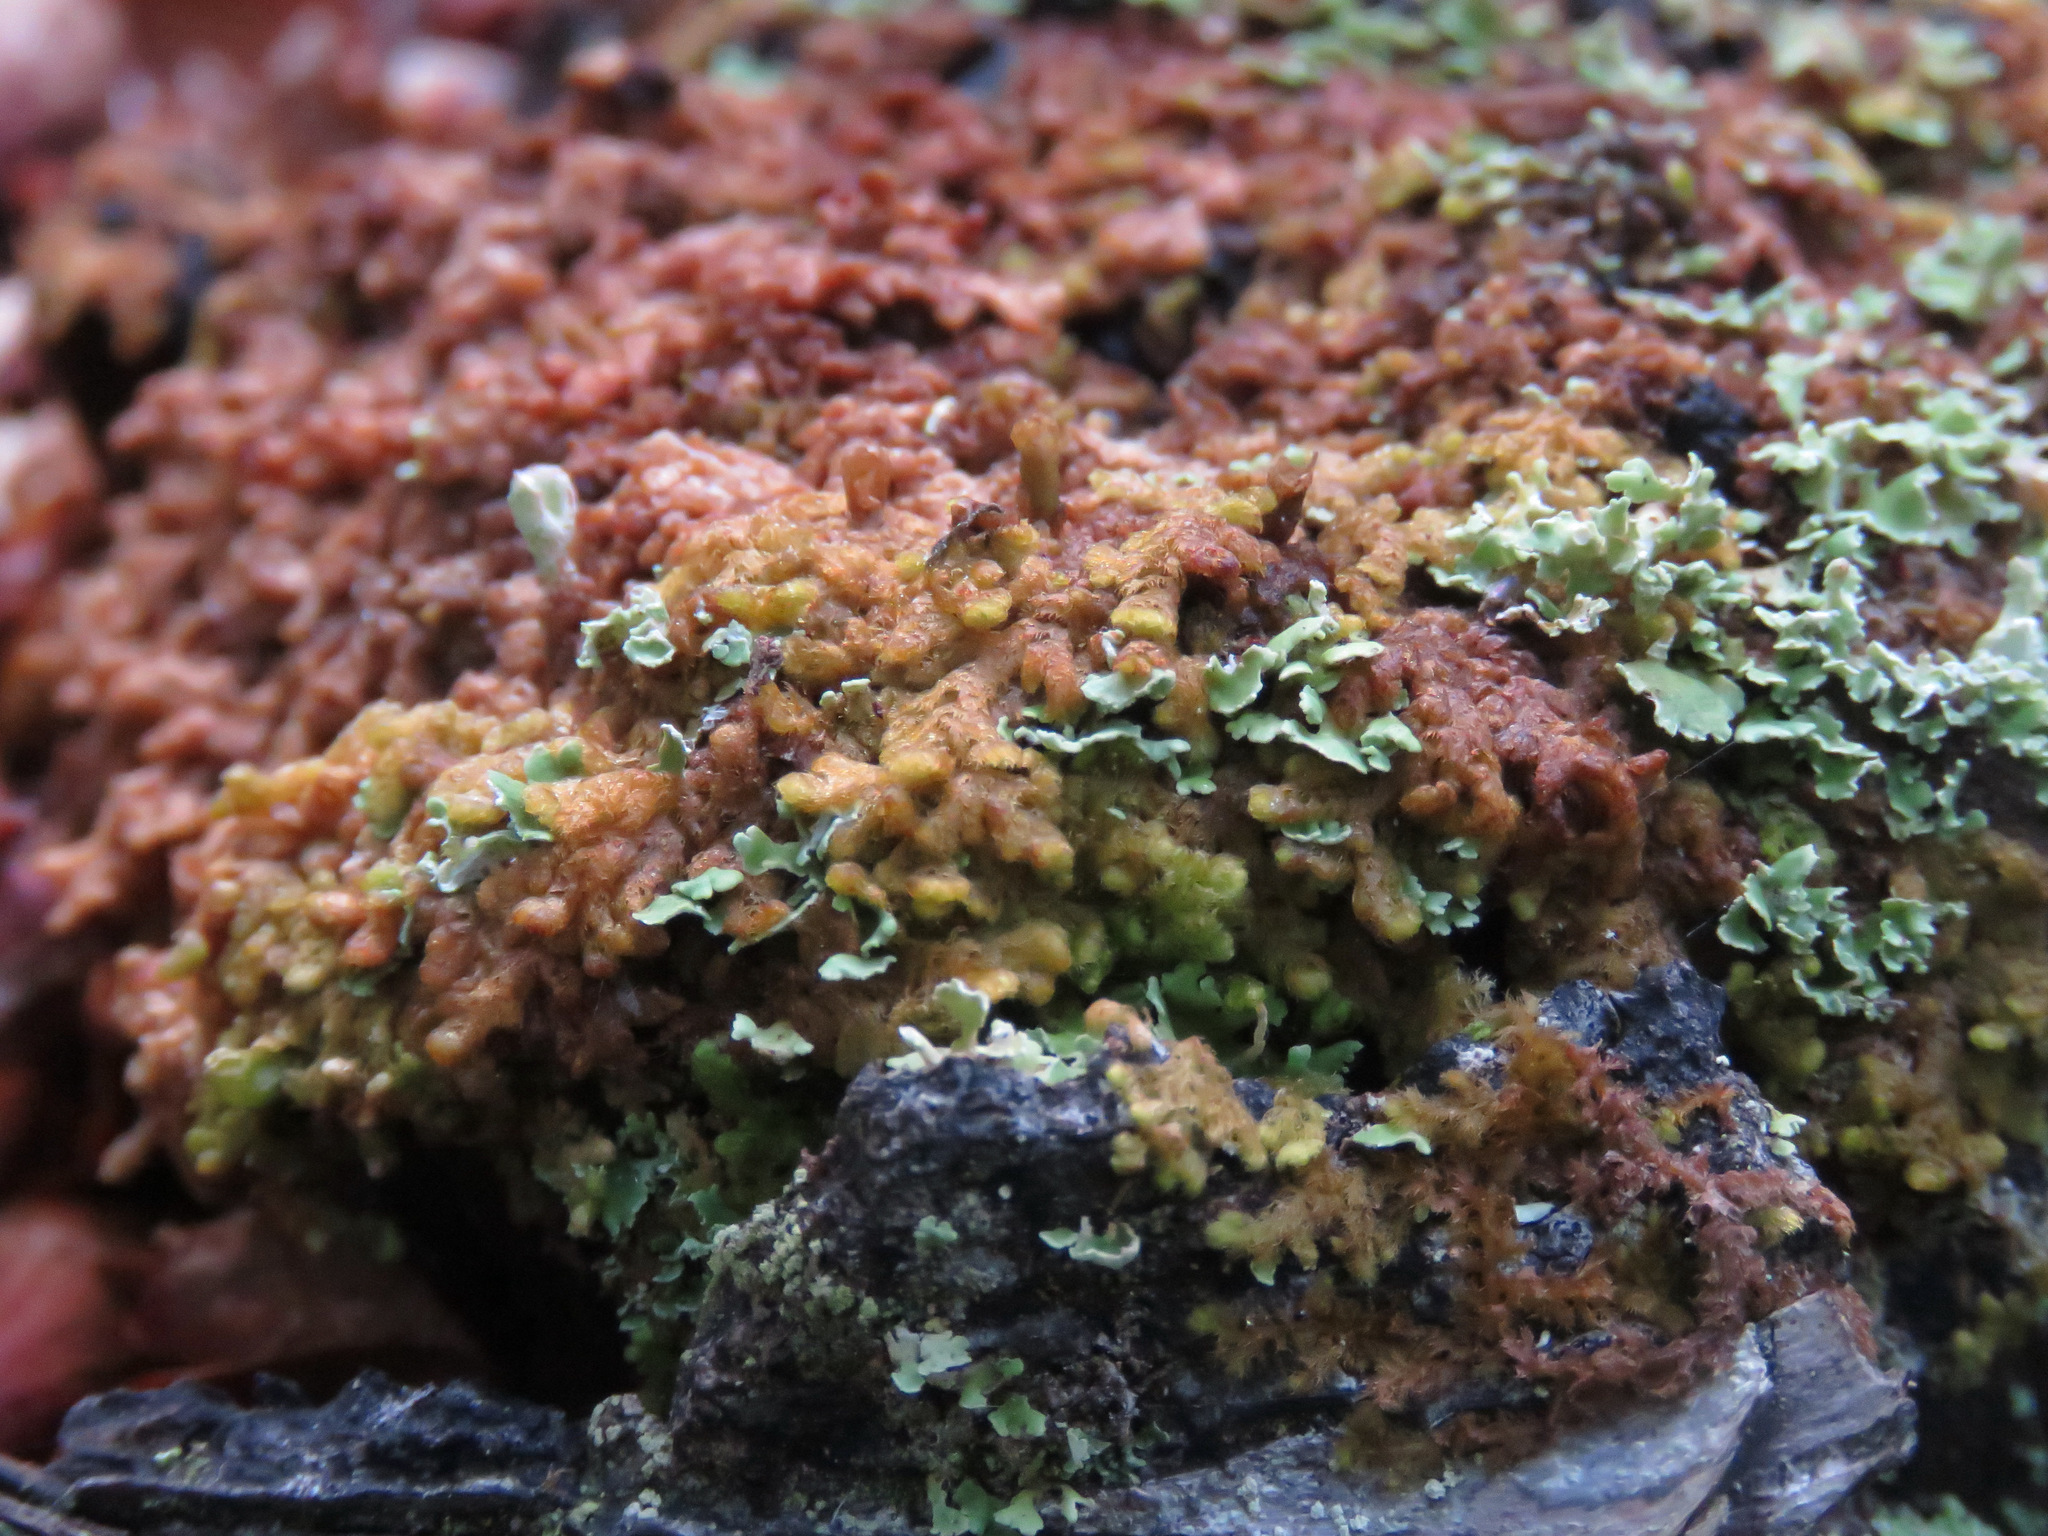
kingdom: Plantae
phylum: Marchantiophyta
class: Jungermanniopsida
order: Ptilidiales
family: Ptilidiaceae
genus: Ptilidium
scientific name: Ptilidium pulcherrimum
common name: Tree fringewort
